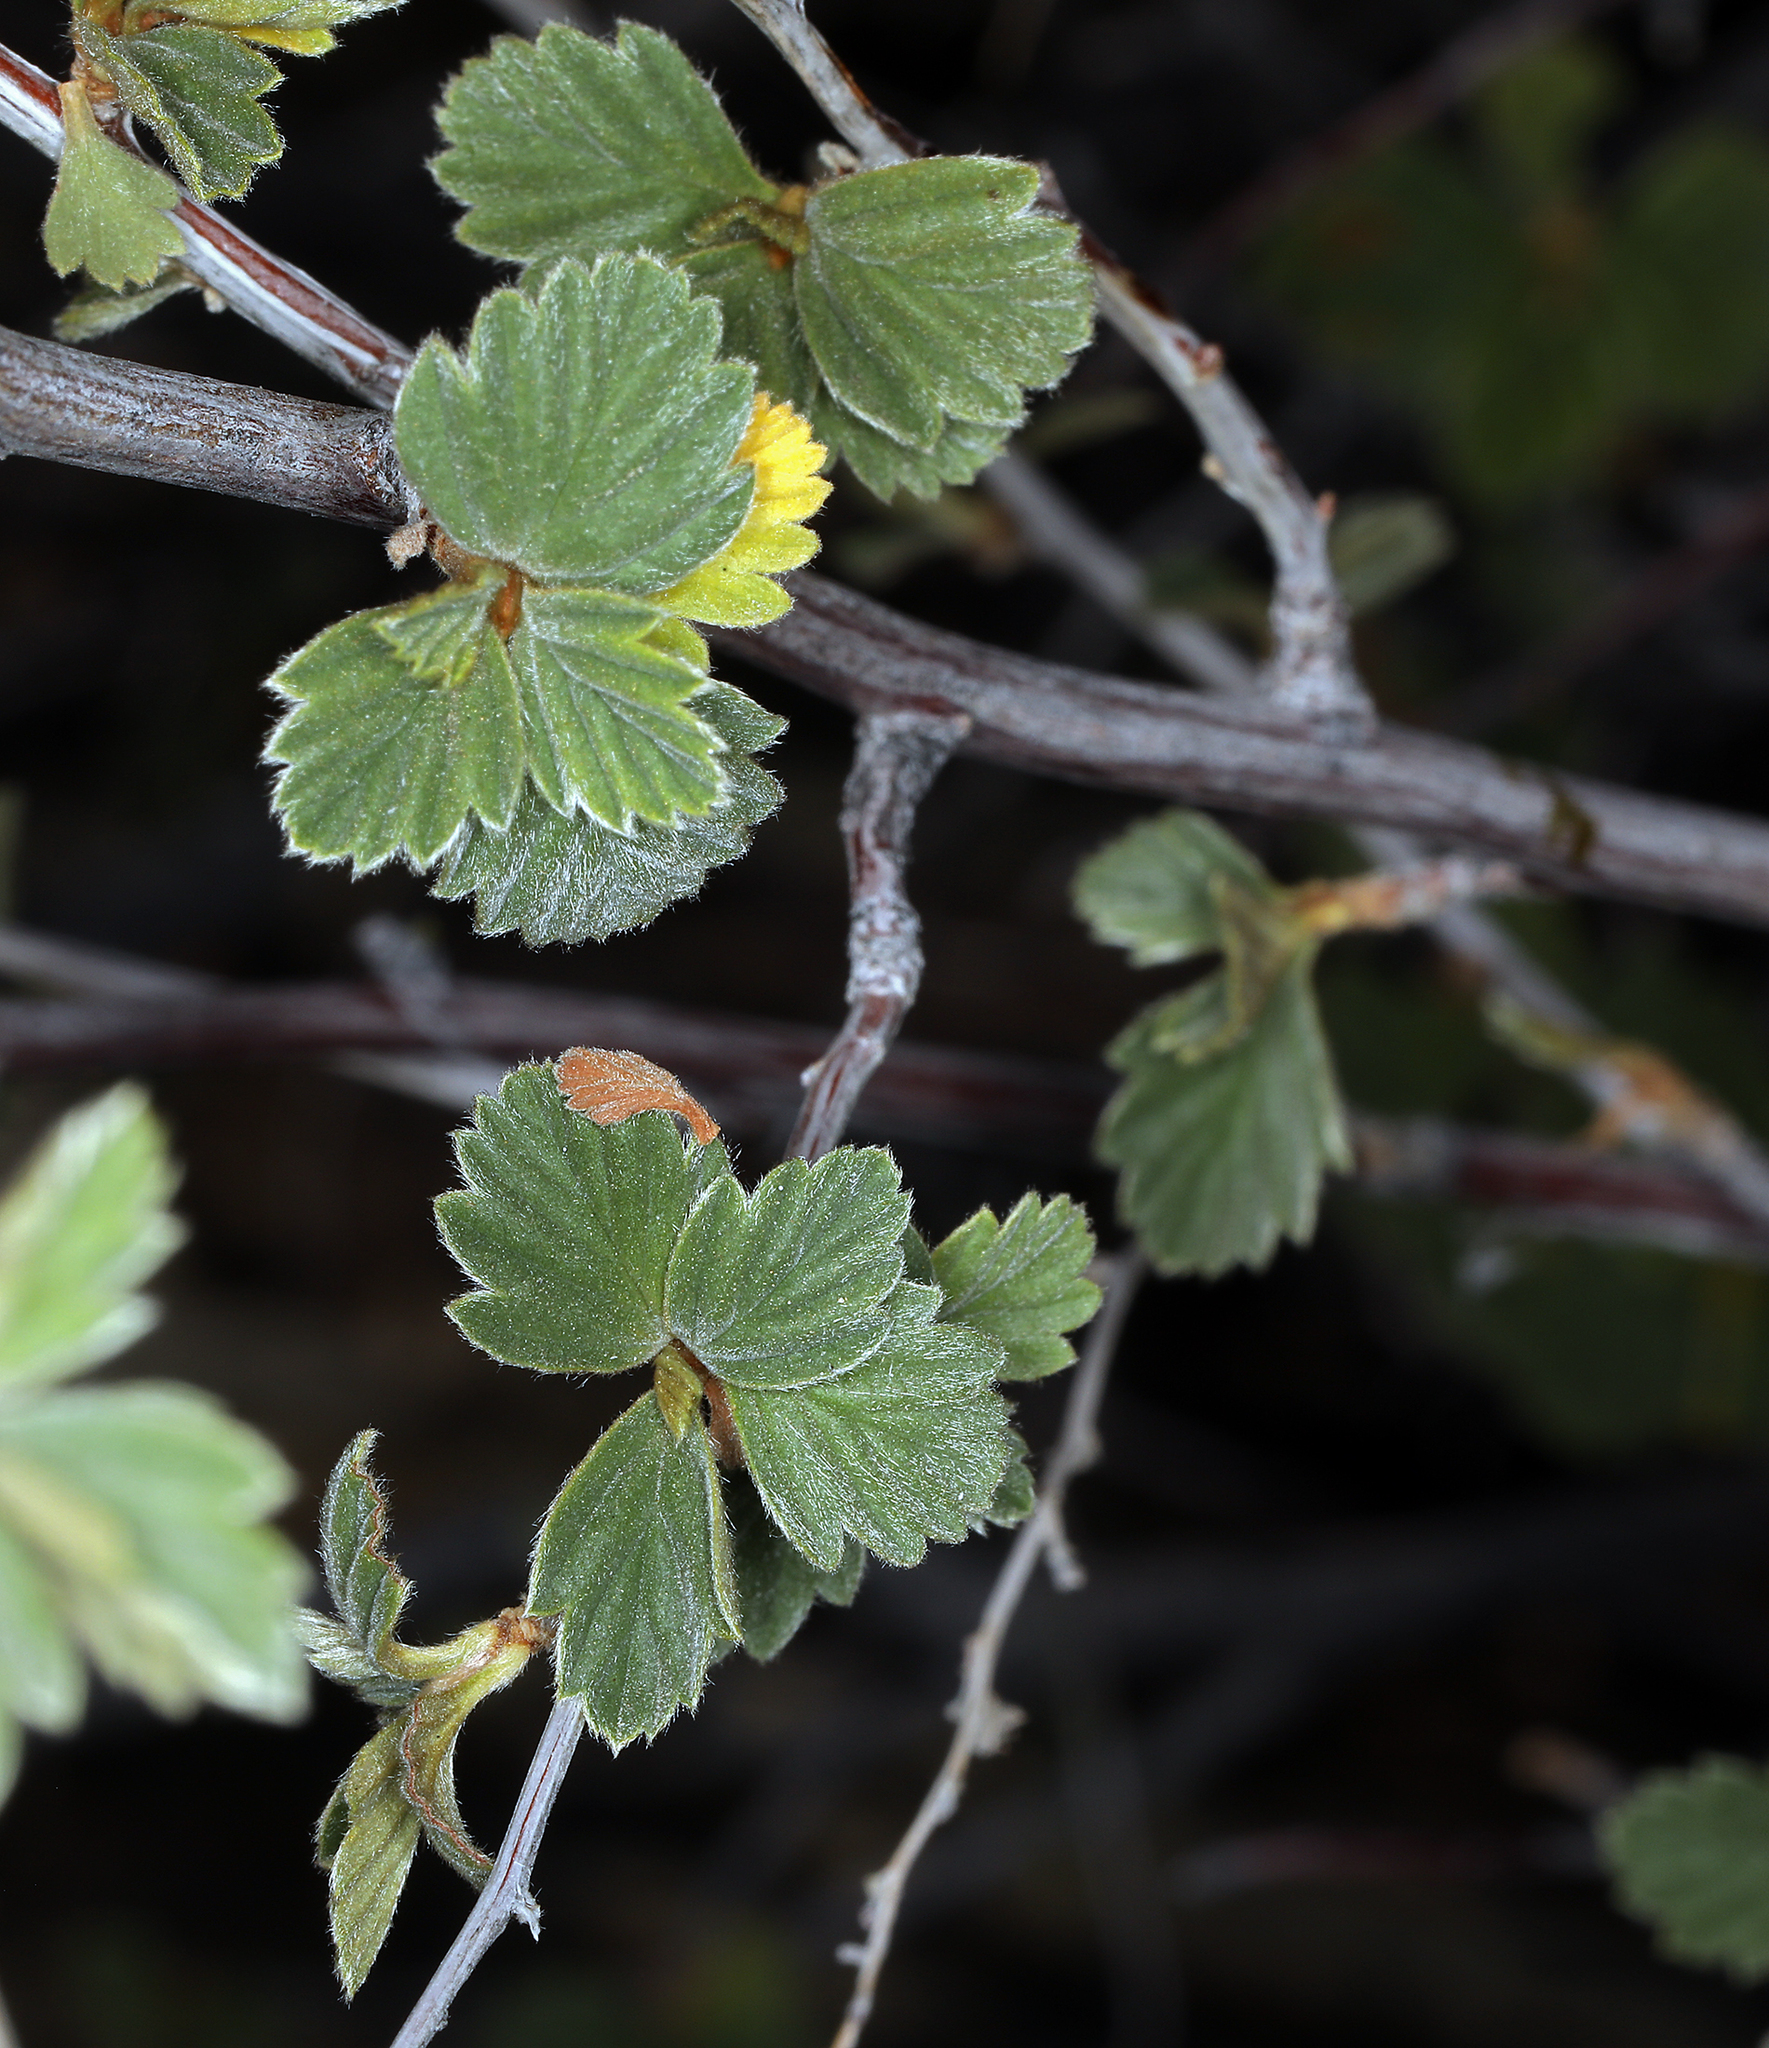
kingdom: Plantae
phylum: Tracheophyta
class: Magnoliopsida
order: Rosales
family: Rosaceae
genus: Holodiscus
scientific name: Holodiscus discolor
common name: Oceanspray
